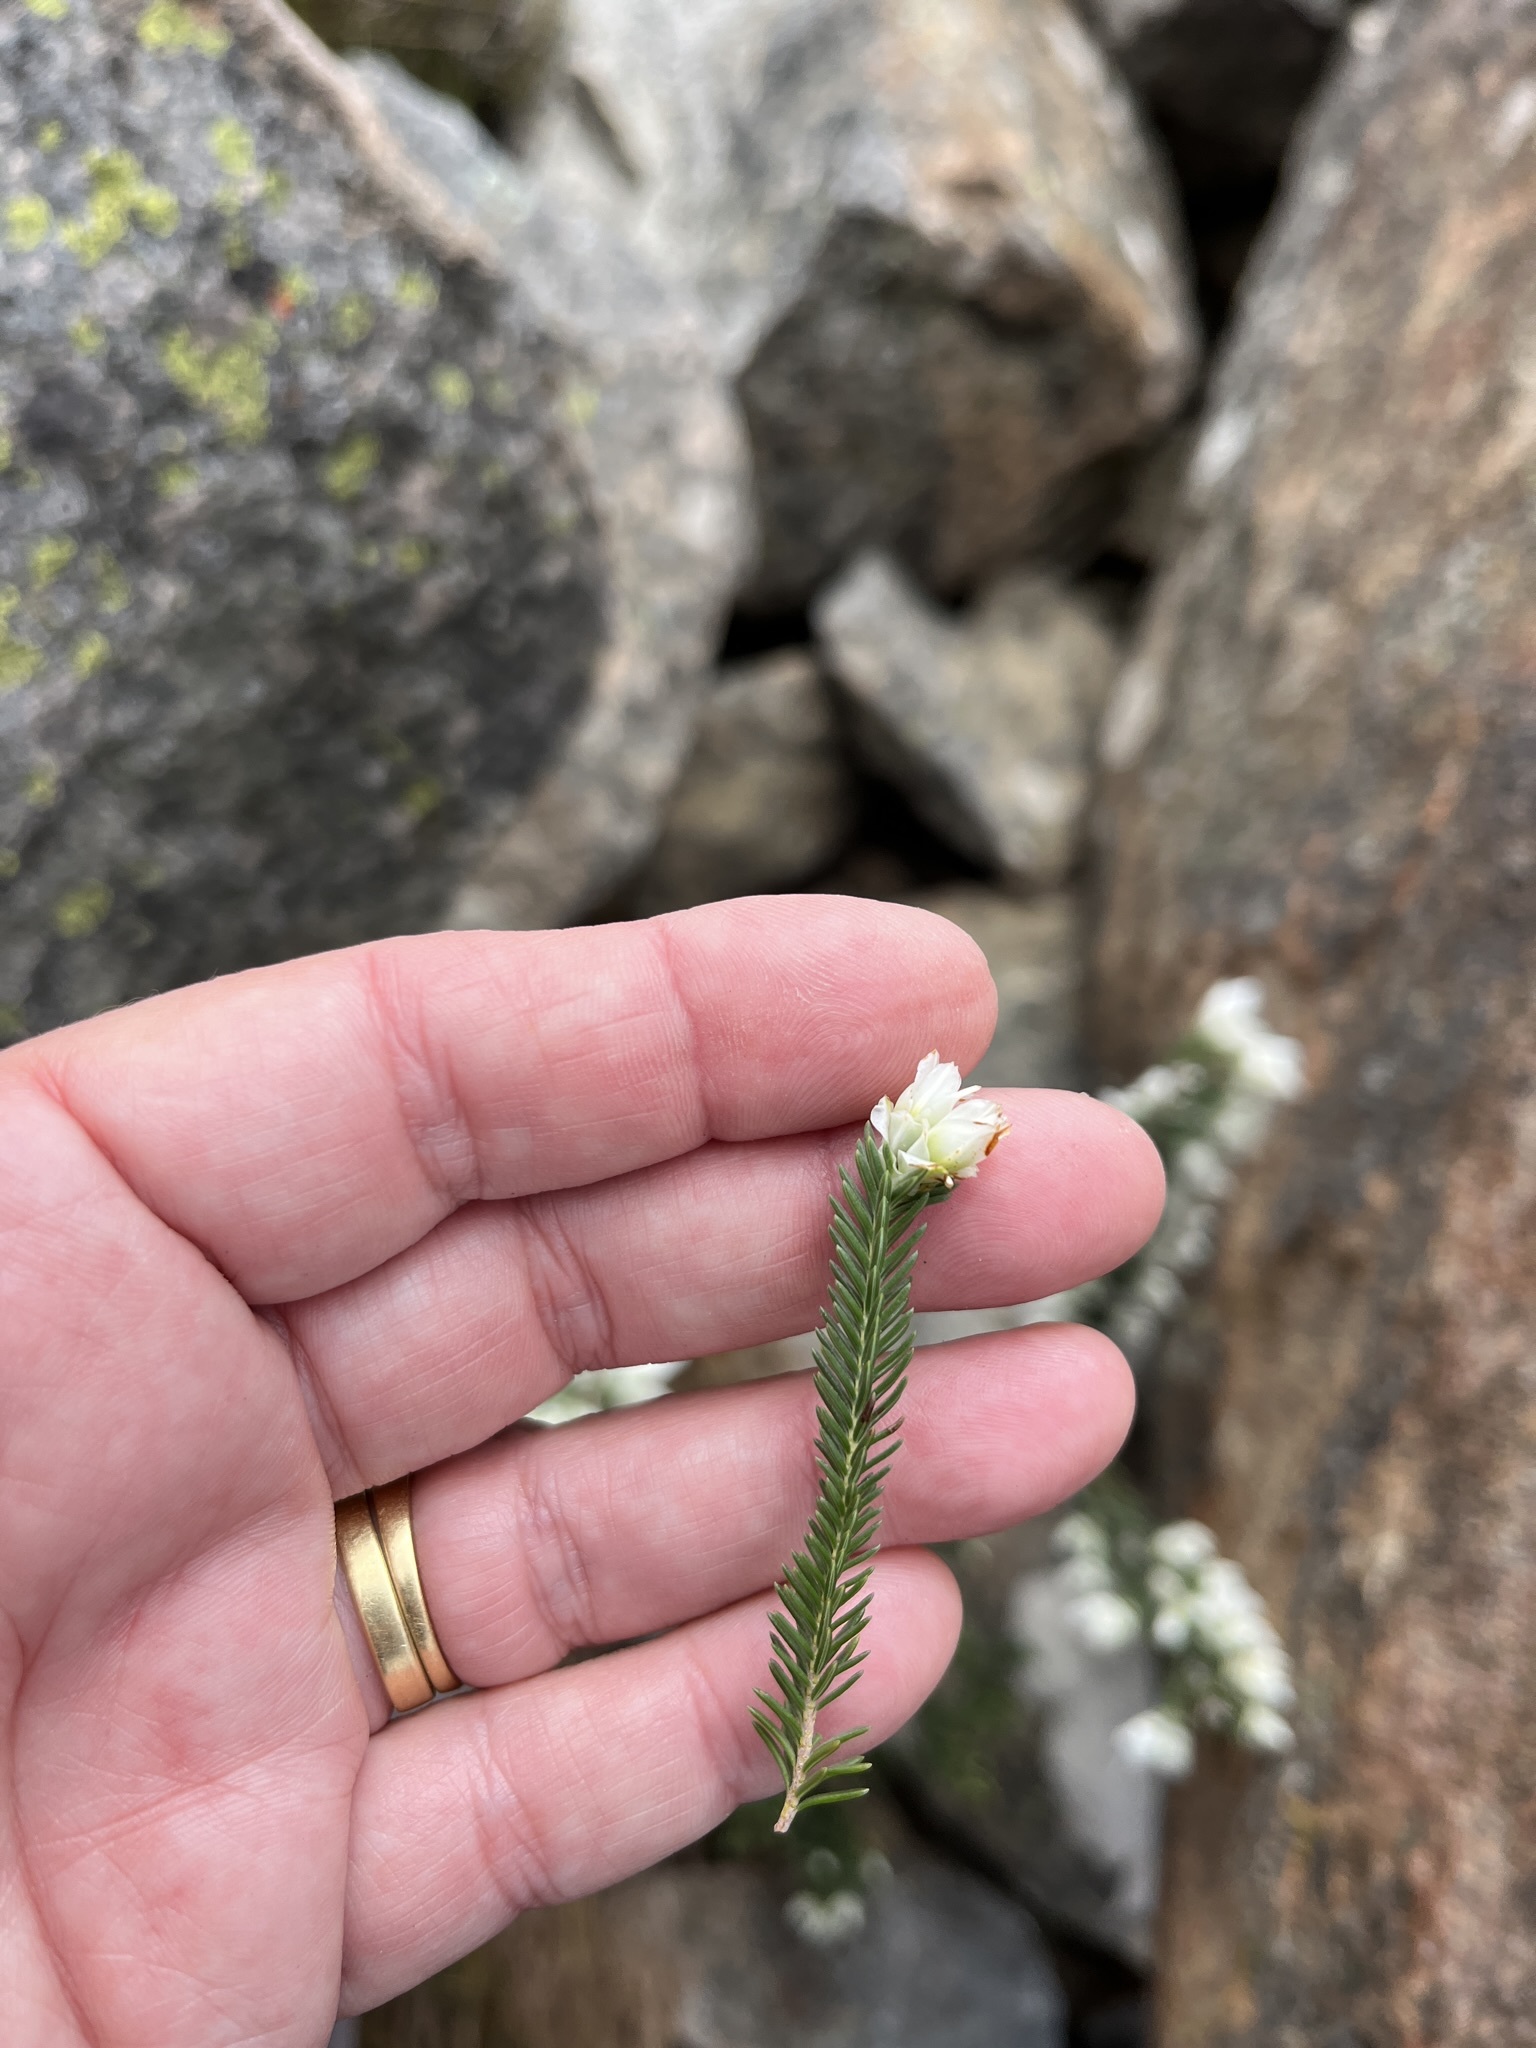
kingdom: Plantae
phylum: Tracheophyta
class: Magnoliopsida
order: Ericales
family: Ericaceae
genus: Erica
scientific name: Erica monsoniana
